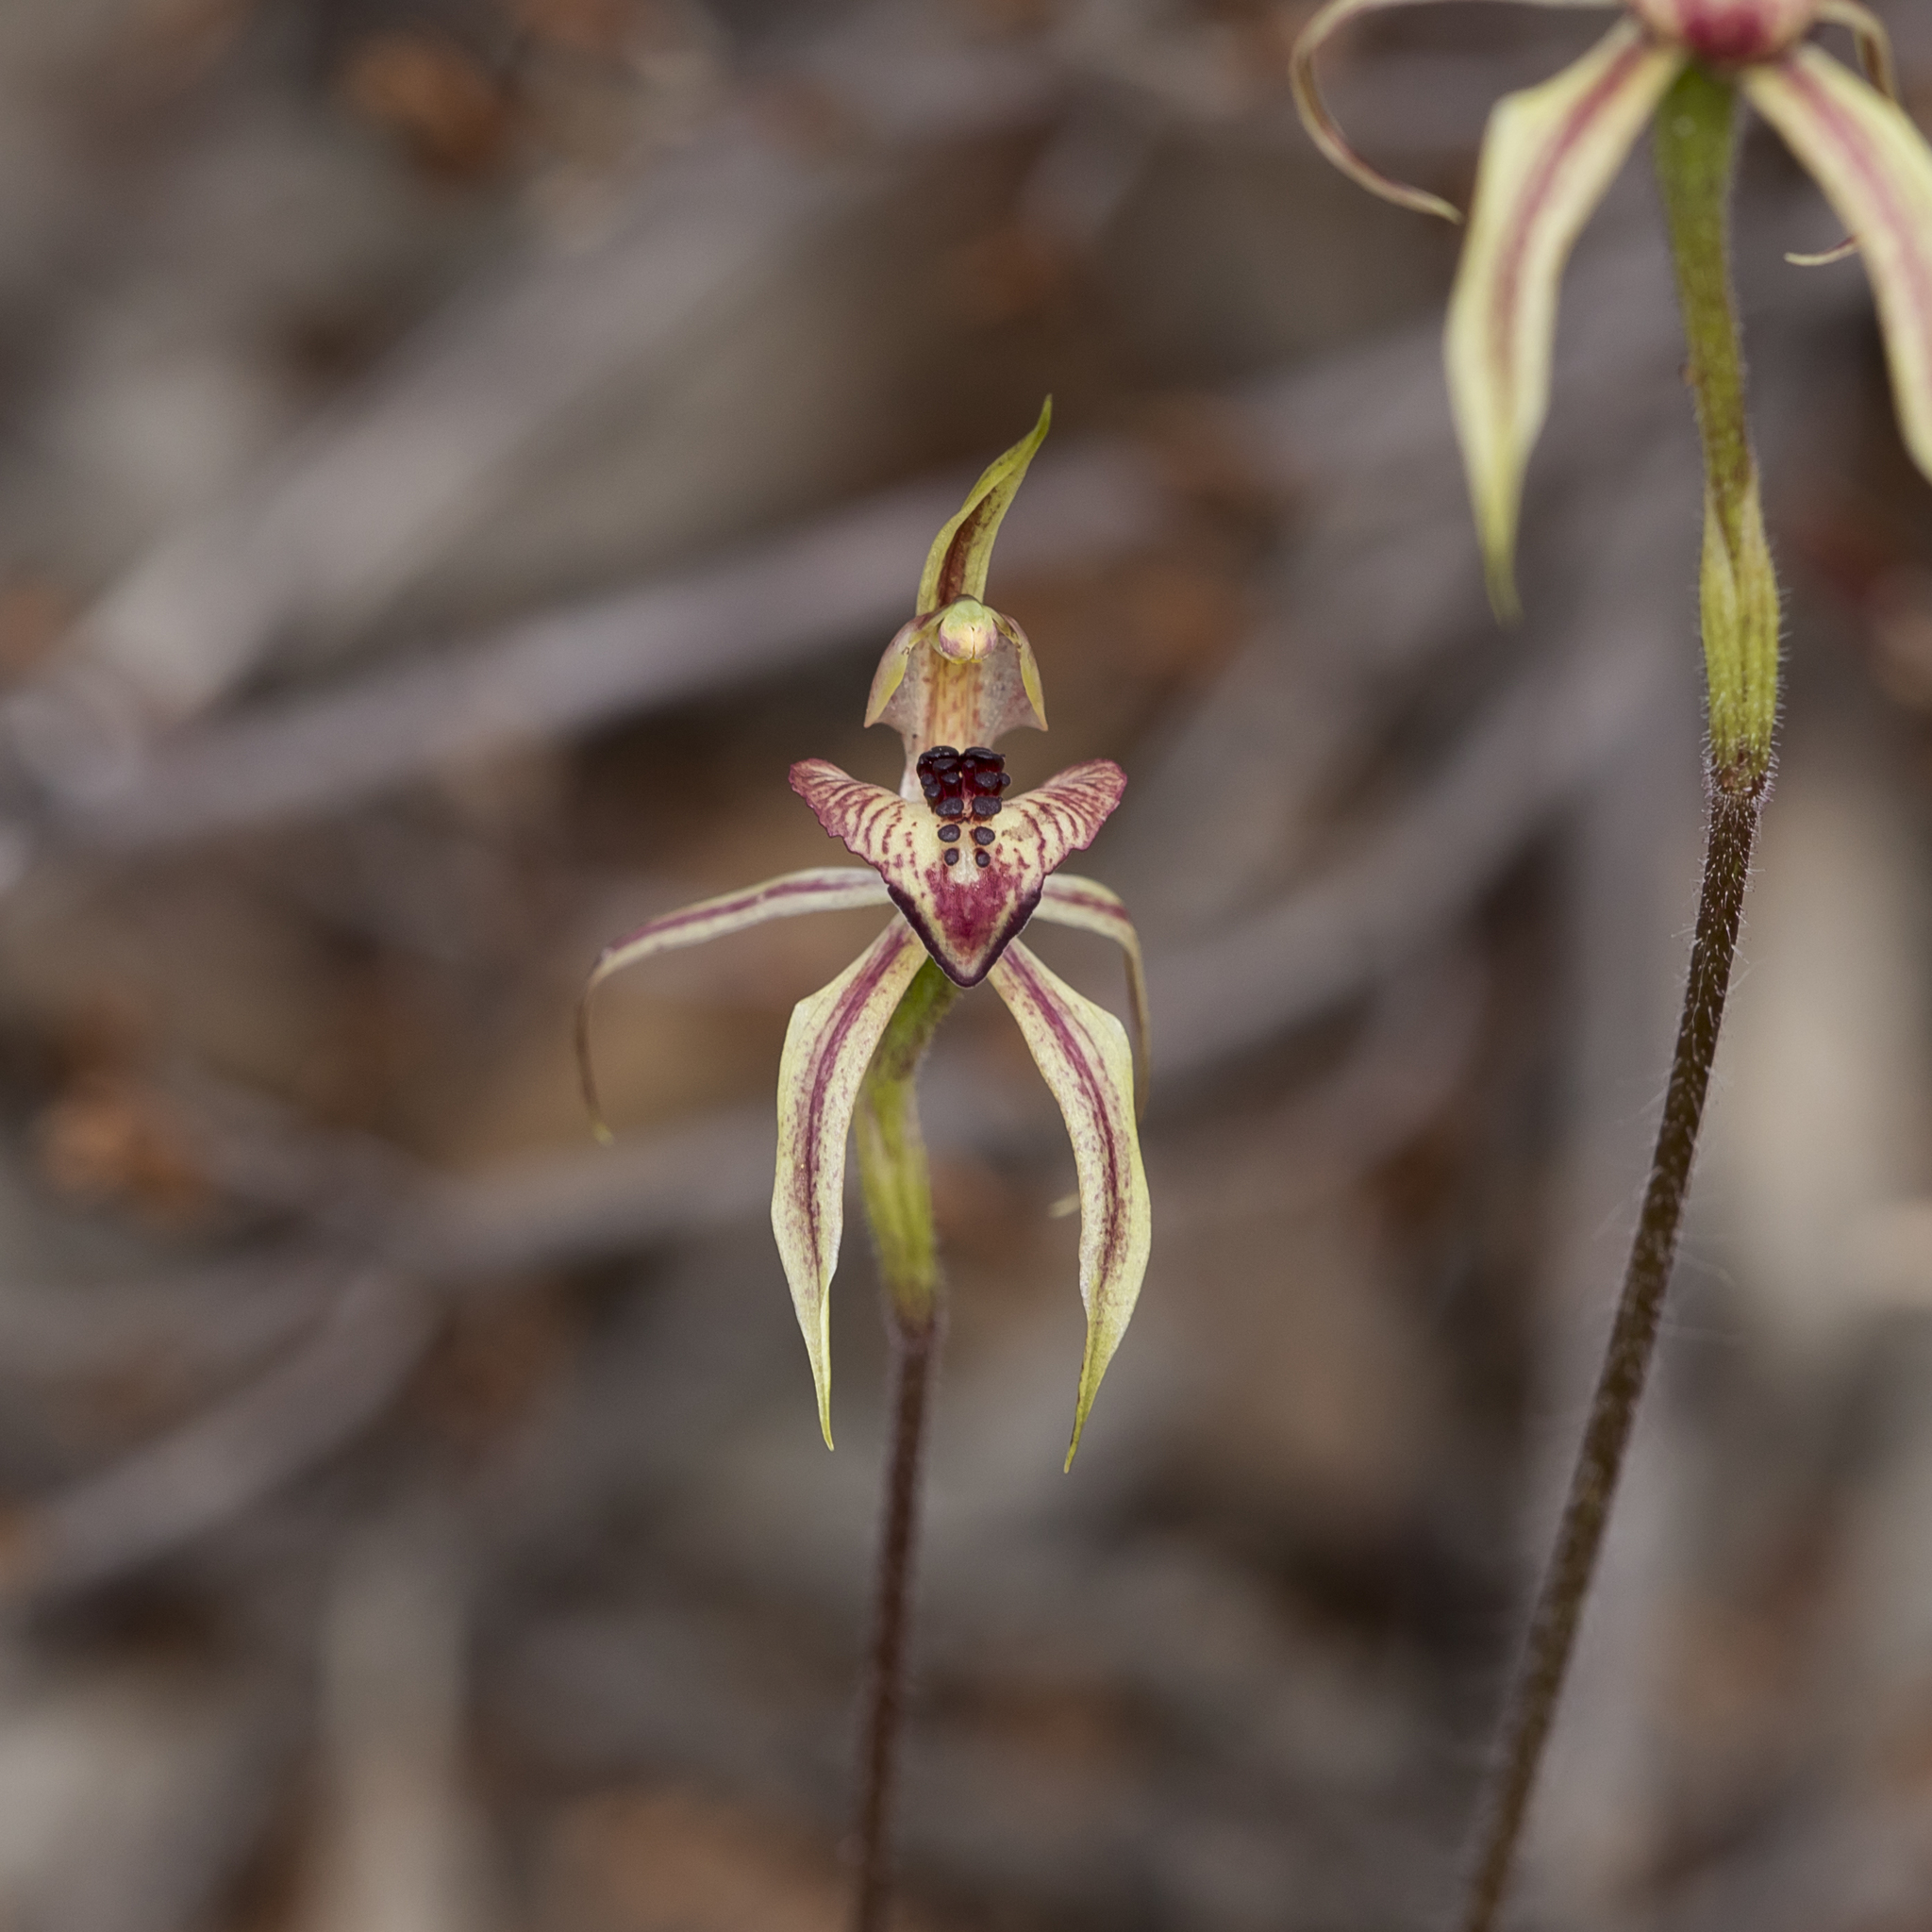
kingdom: Plantae
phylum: Tracheophyta
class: Liliopsida
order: Asparagales
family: Orchidaceae
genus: Caladenia
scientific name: Caladenia cardiochila
